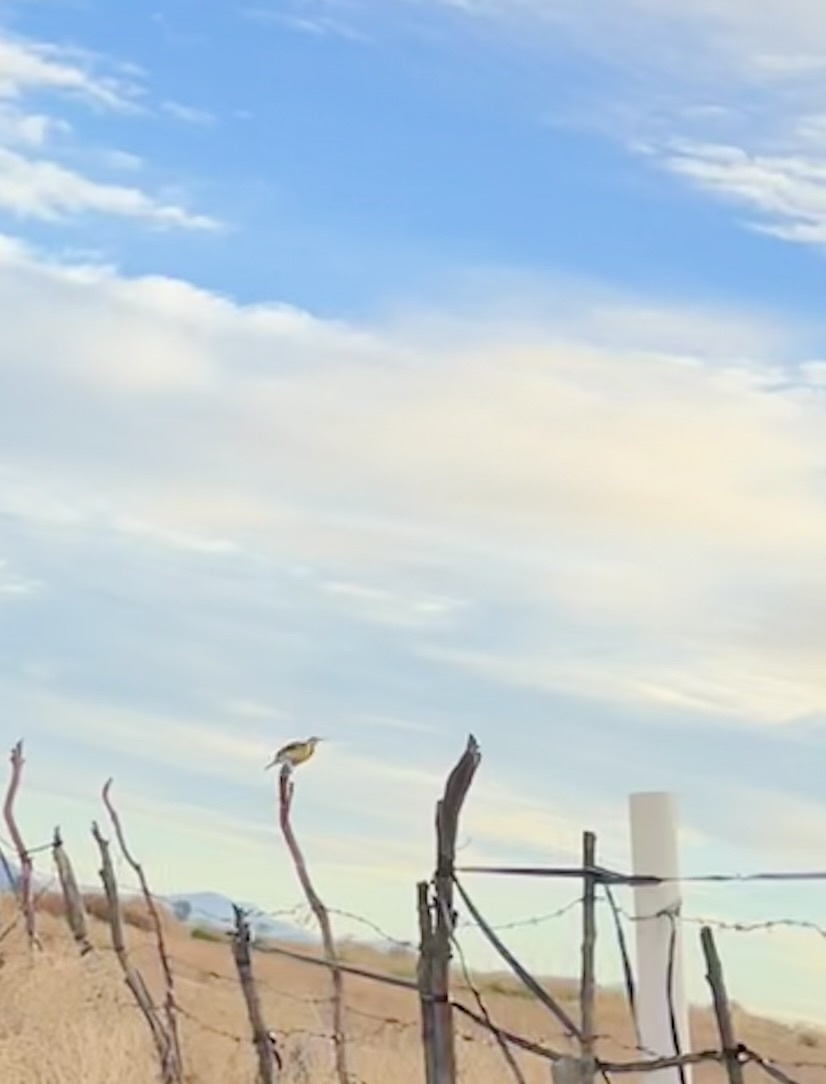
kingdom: Animalia
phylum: Chordata
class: Aves
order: Passeriformes
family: Icteridae
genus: Sturnella
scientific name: Sturnella neglecta
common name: Western meadowlark
